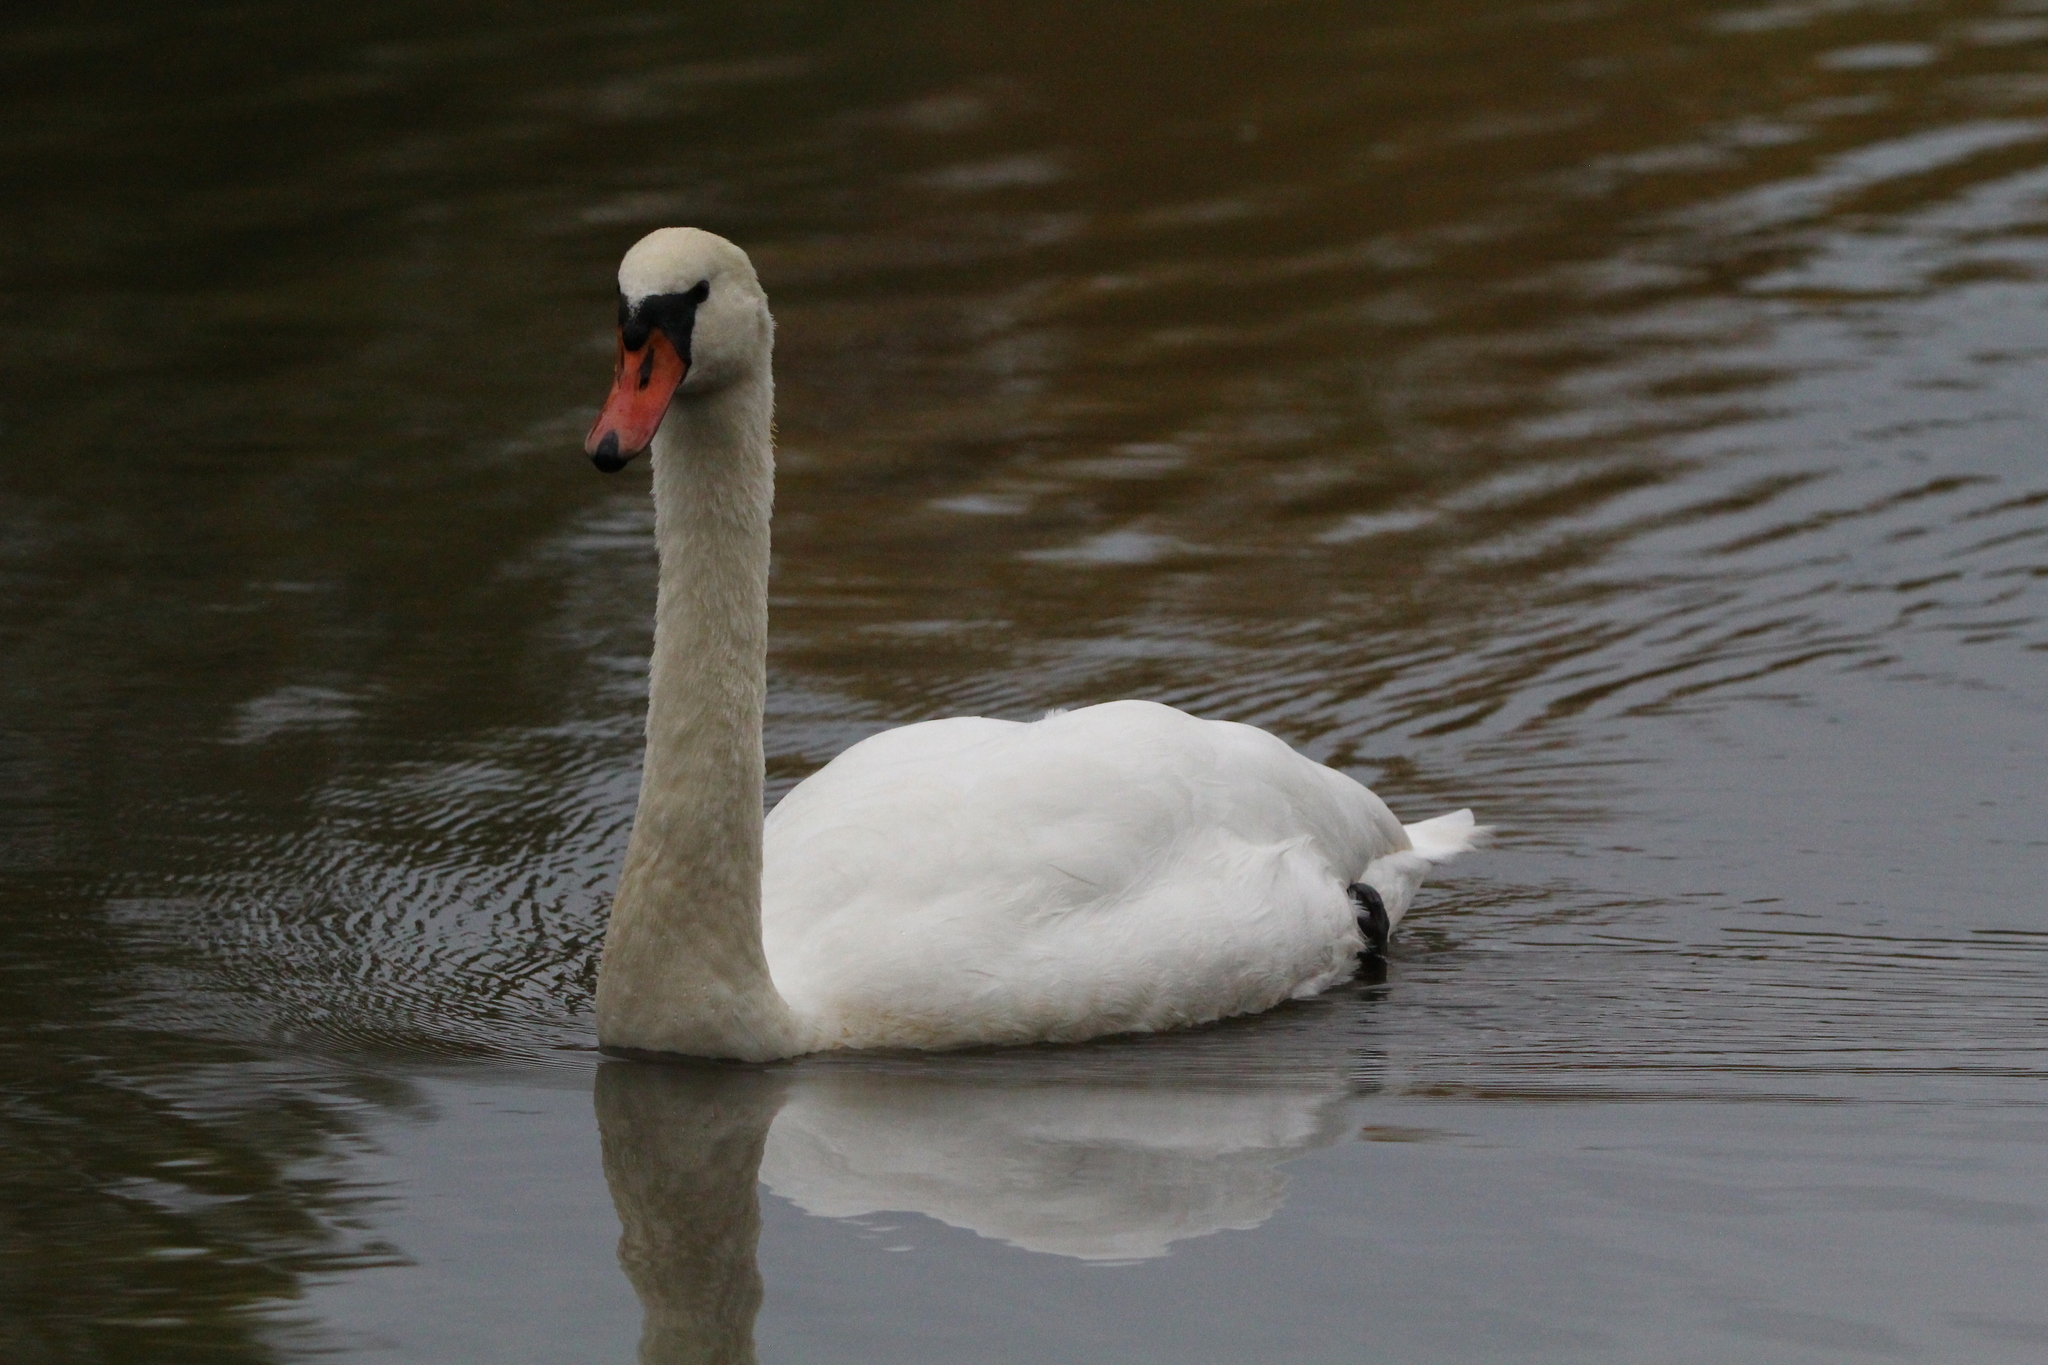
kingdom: Animalia
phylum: Chordata
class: Aves
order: Anseriformes
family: Anatidae
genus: Cygnus
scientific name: Cygnus olor
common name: Mute swan
